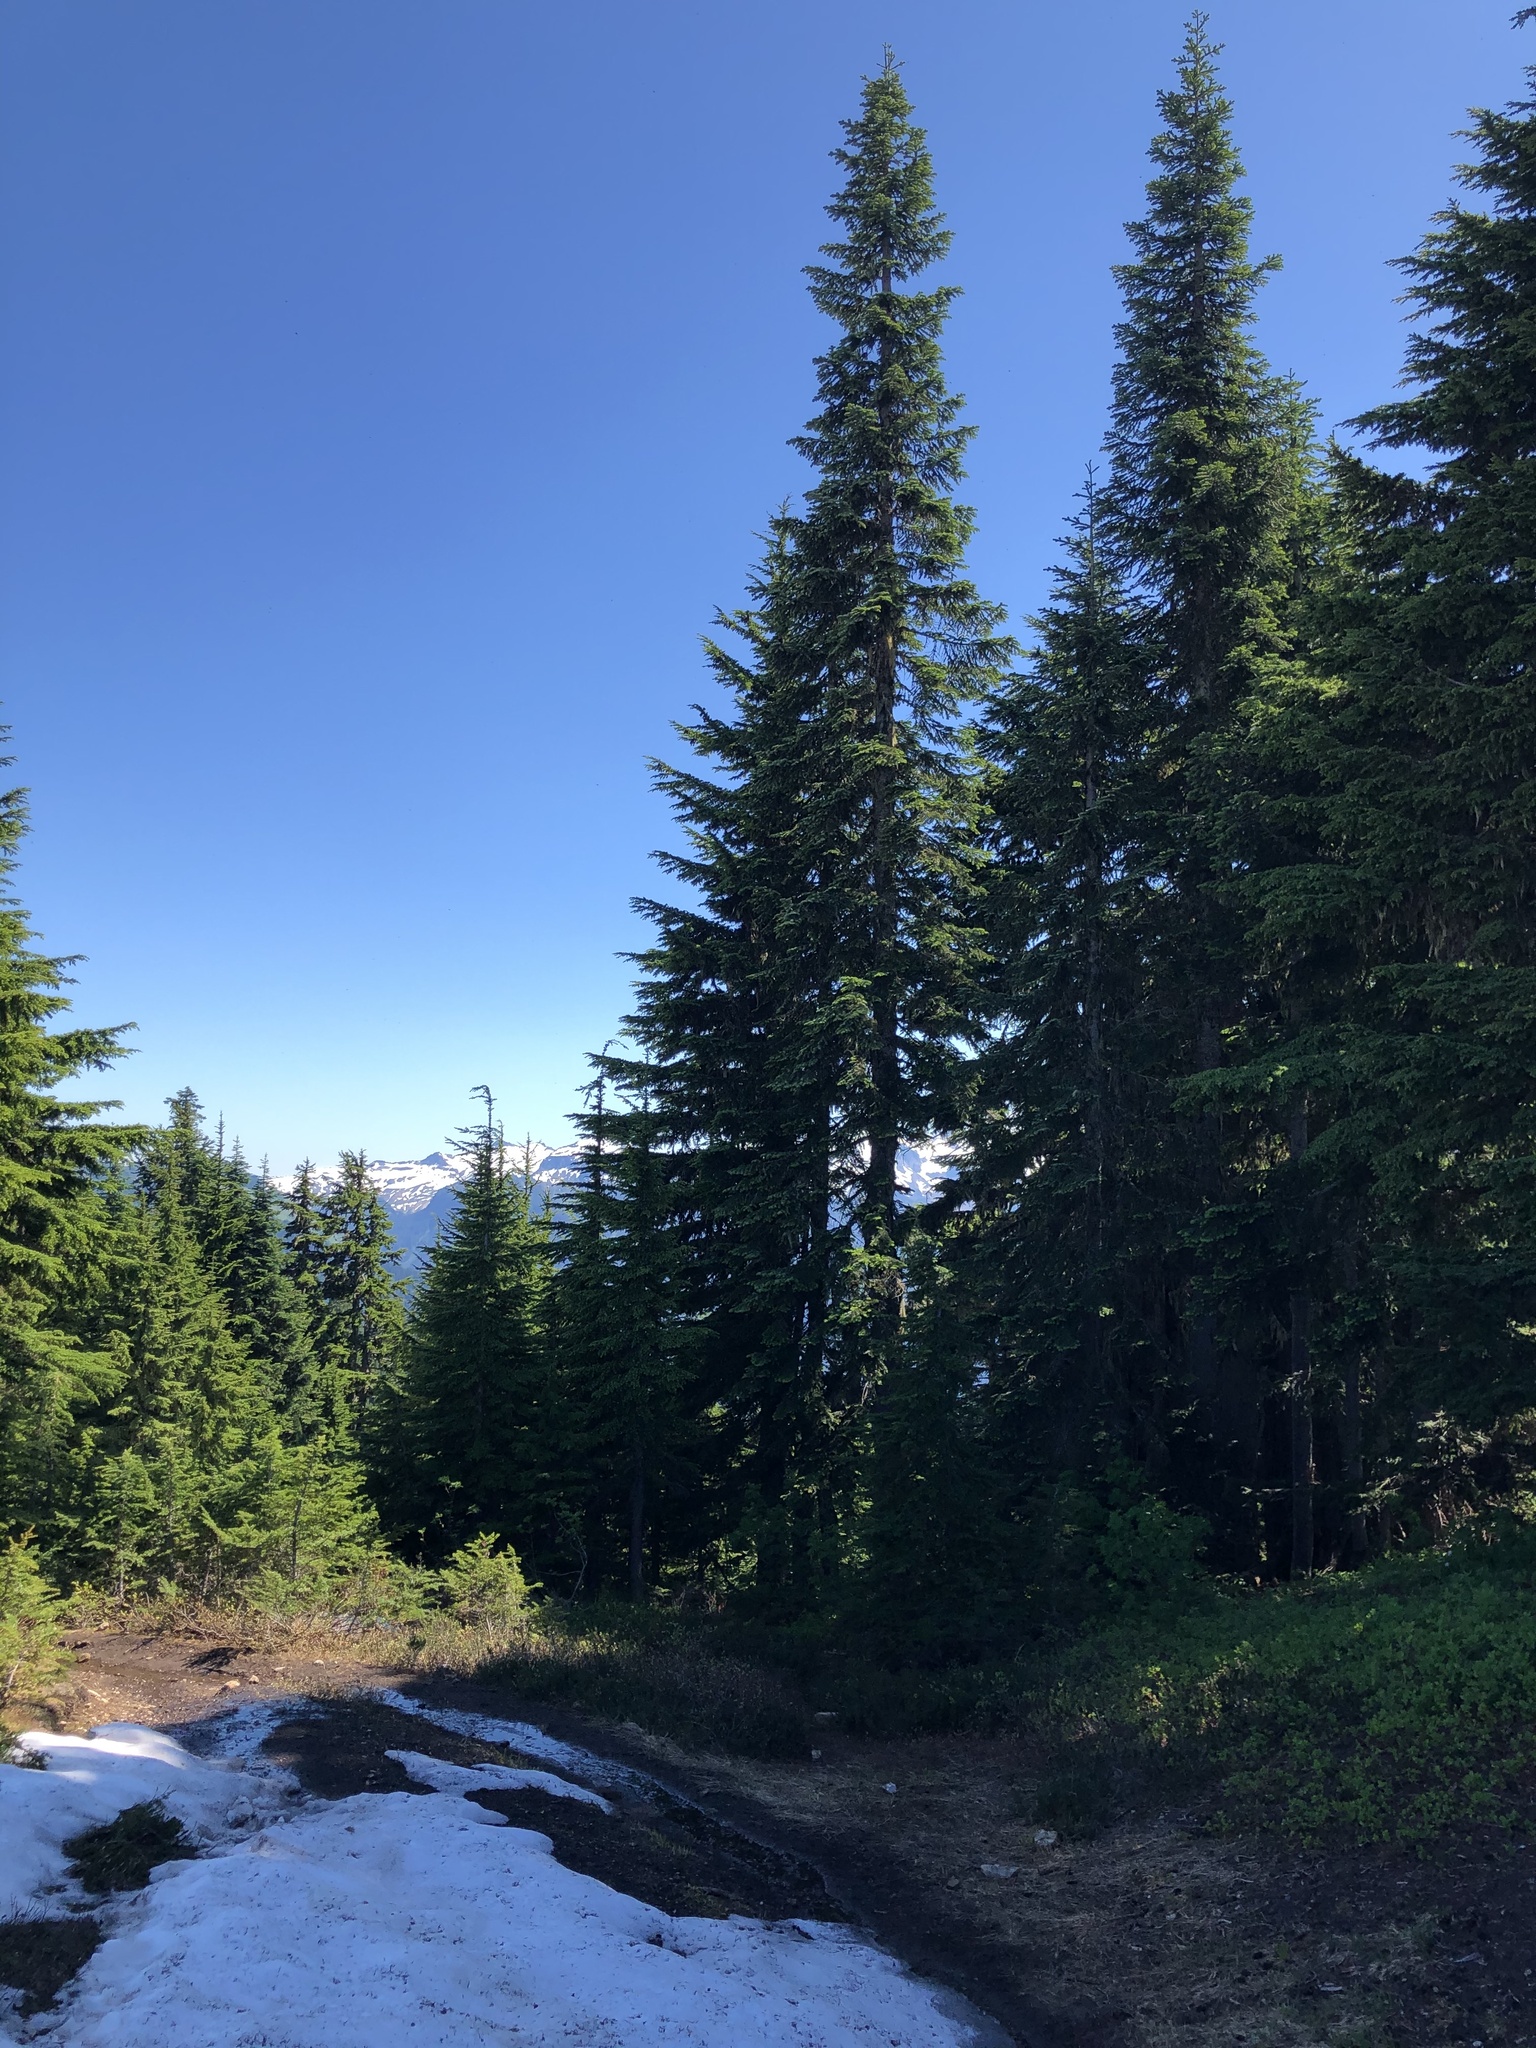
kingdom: Plantae
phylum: Tracheophyta
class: Pinopsida
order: Pinales
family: Pinaceae
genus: Abies
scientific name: Abies amabilis
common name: Pacific silver fir
